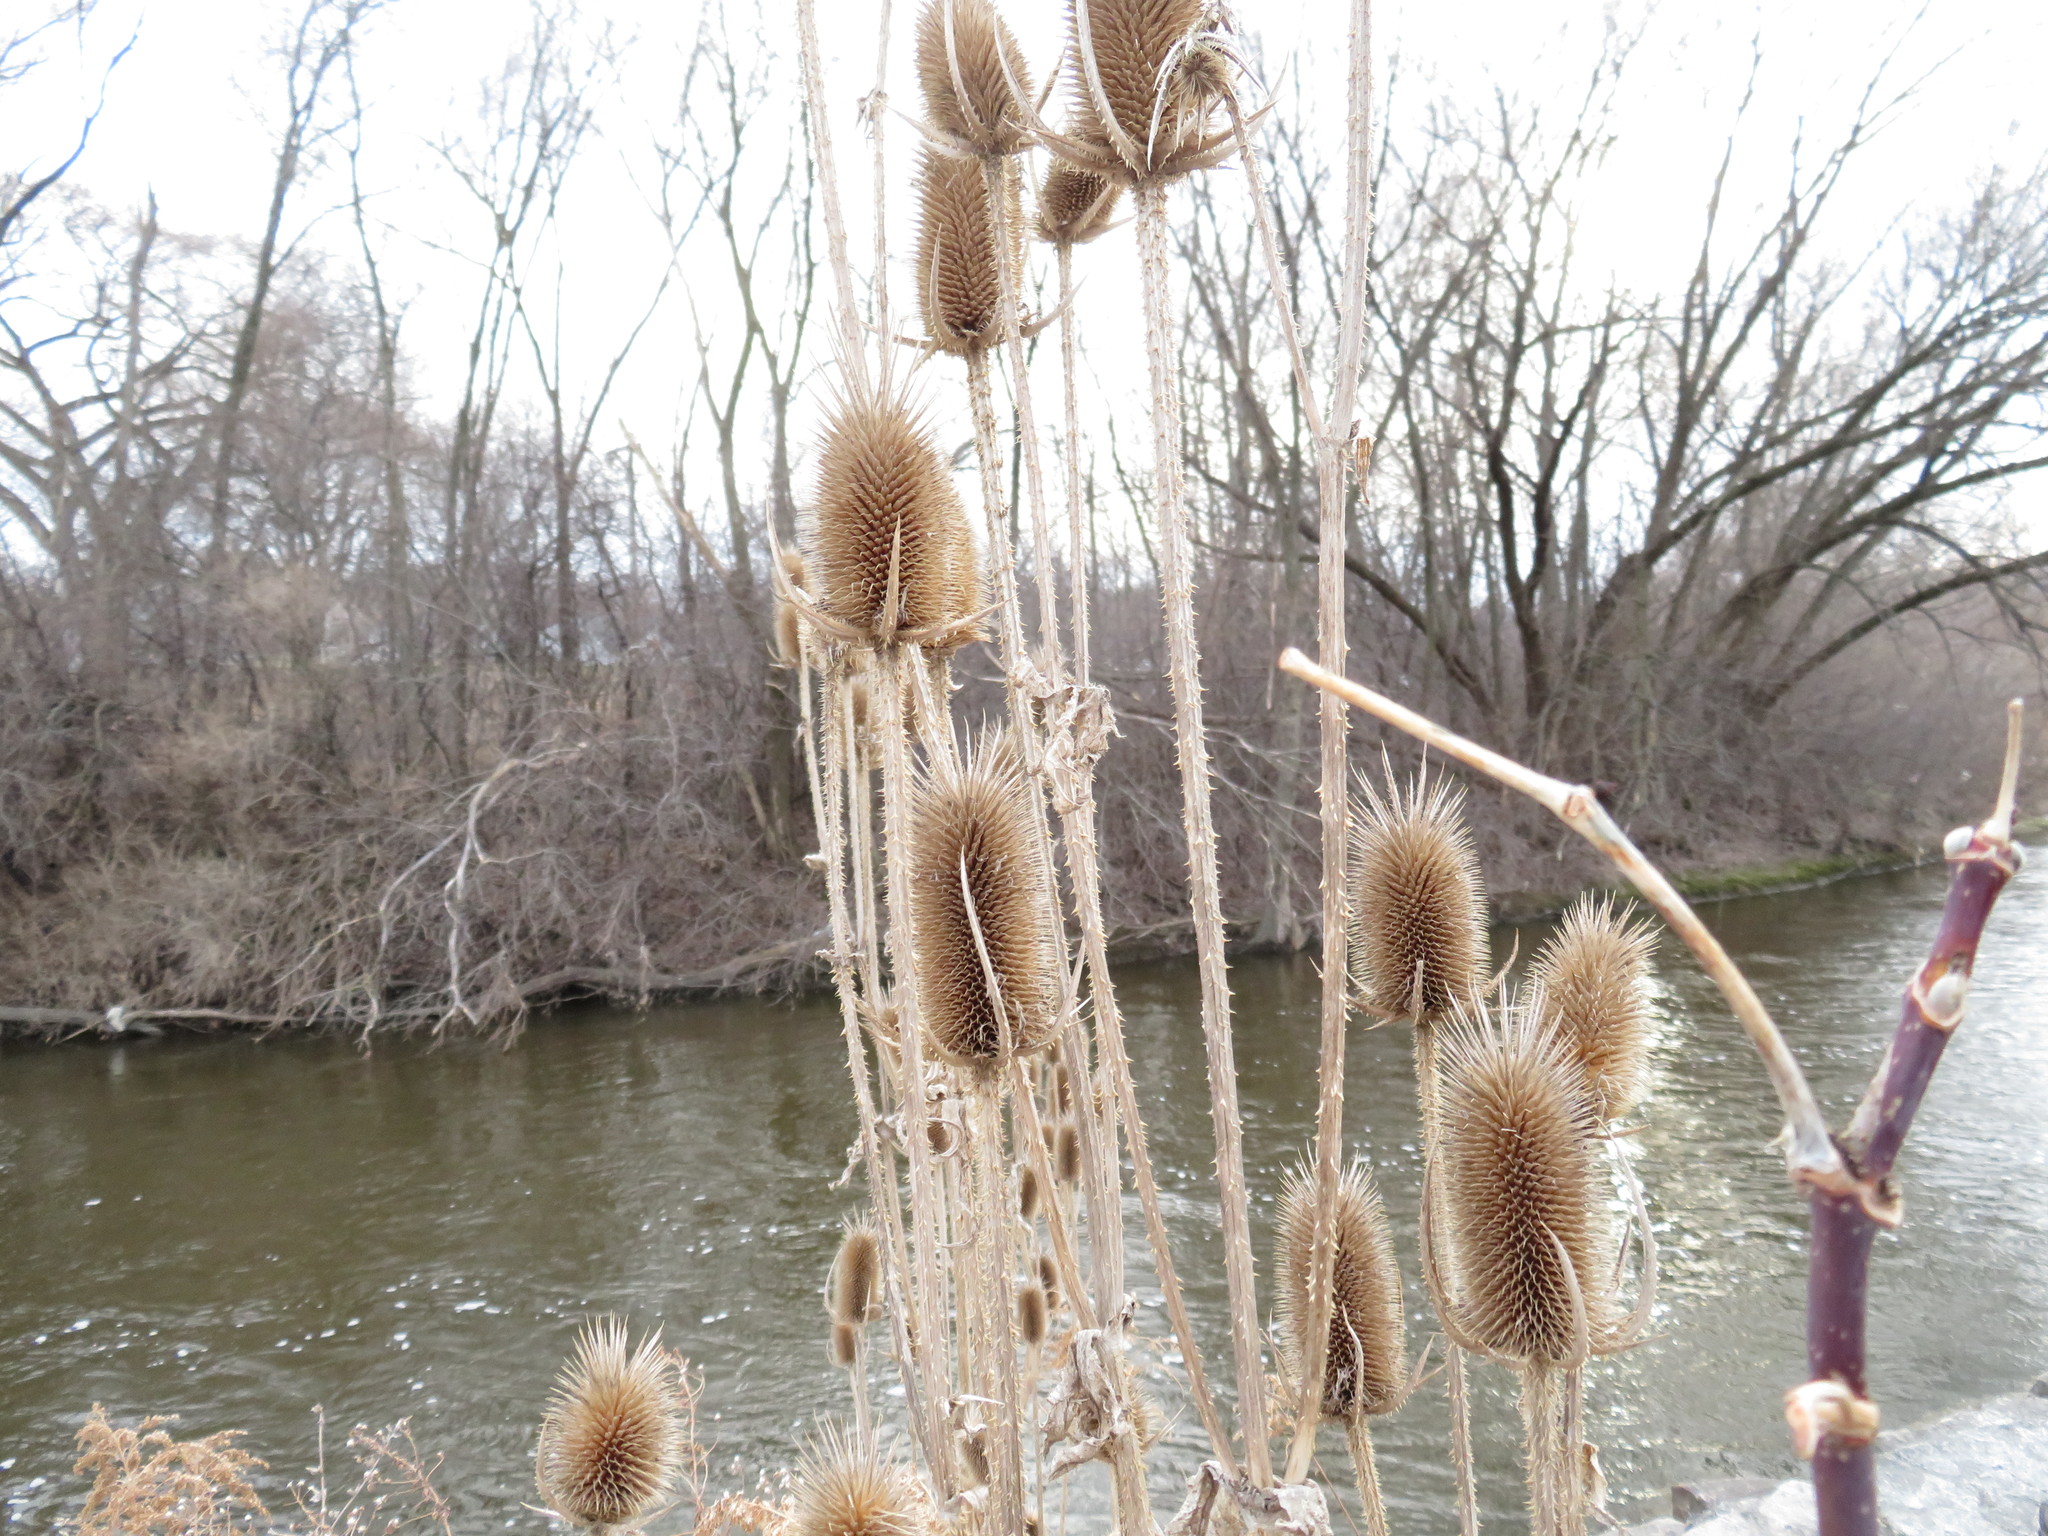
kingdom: Plantae
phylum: Tracheophyta
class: Magnoliopsida
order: Dipsacales
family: Caprifoliaceae
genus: Dipsacus
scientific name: Dipsacus laciniatus
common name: Cut-leaved teasel
